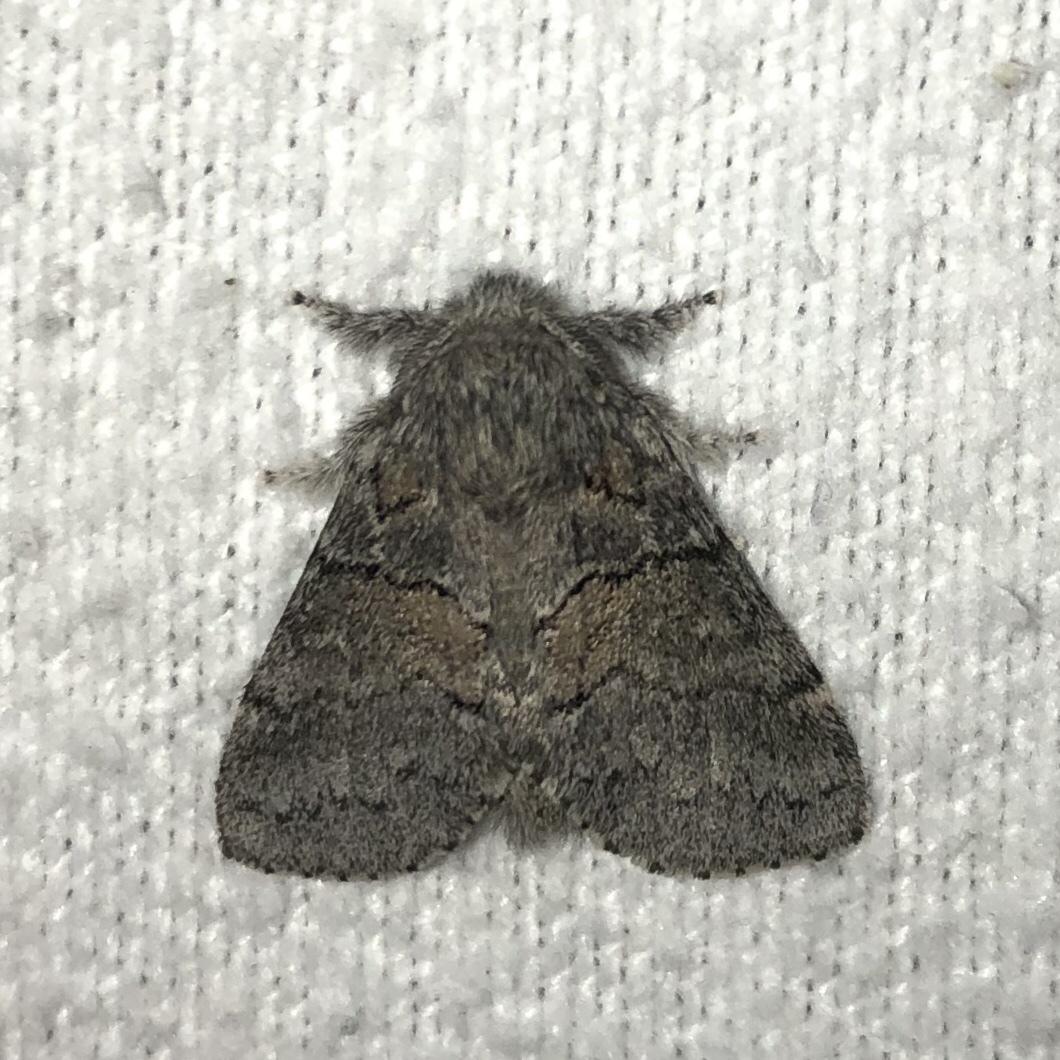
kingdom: Animalia
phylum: Arthropoda
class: Insecta
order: Lepidoptera
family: Notodontidae
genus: Gluphisia
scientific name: Gluphisia septentrionis
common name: Common gluphisia
